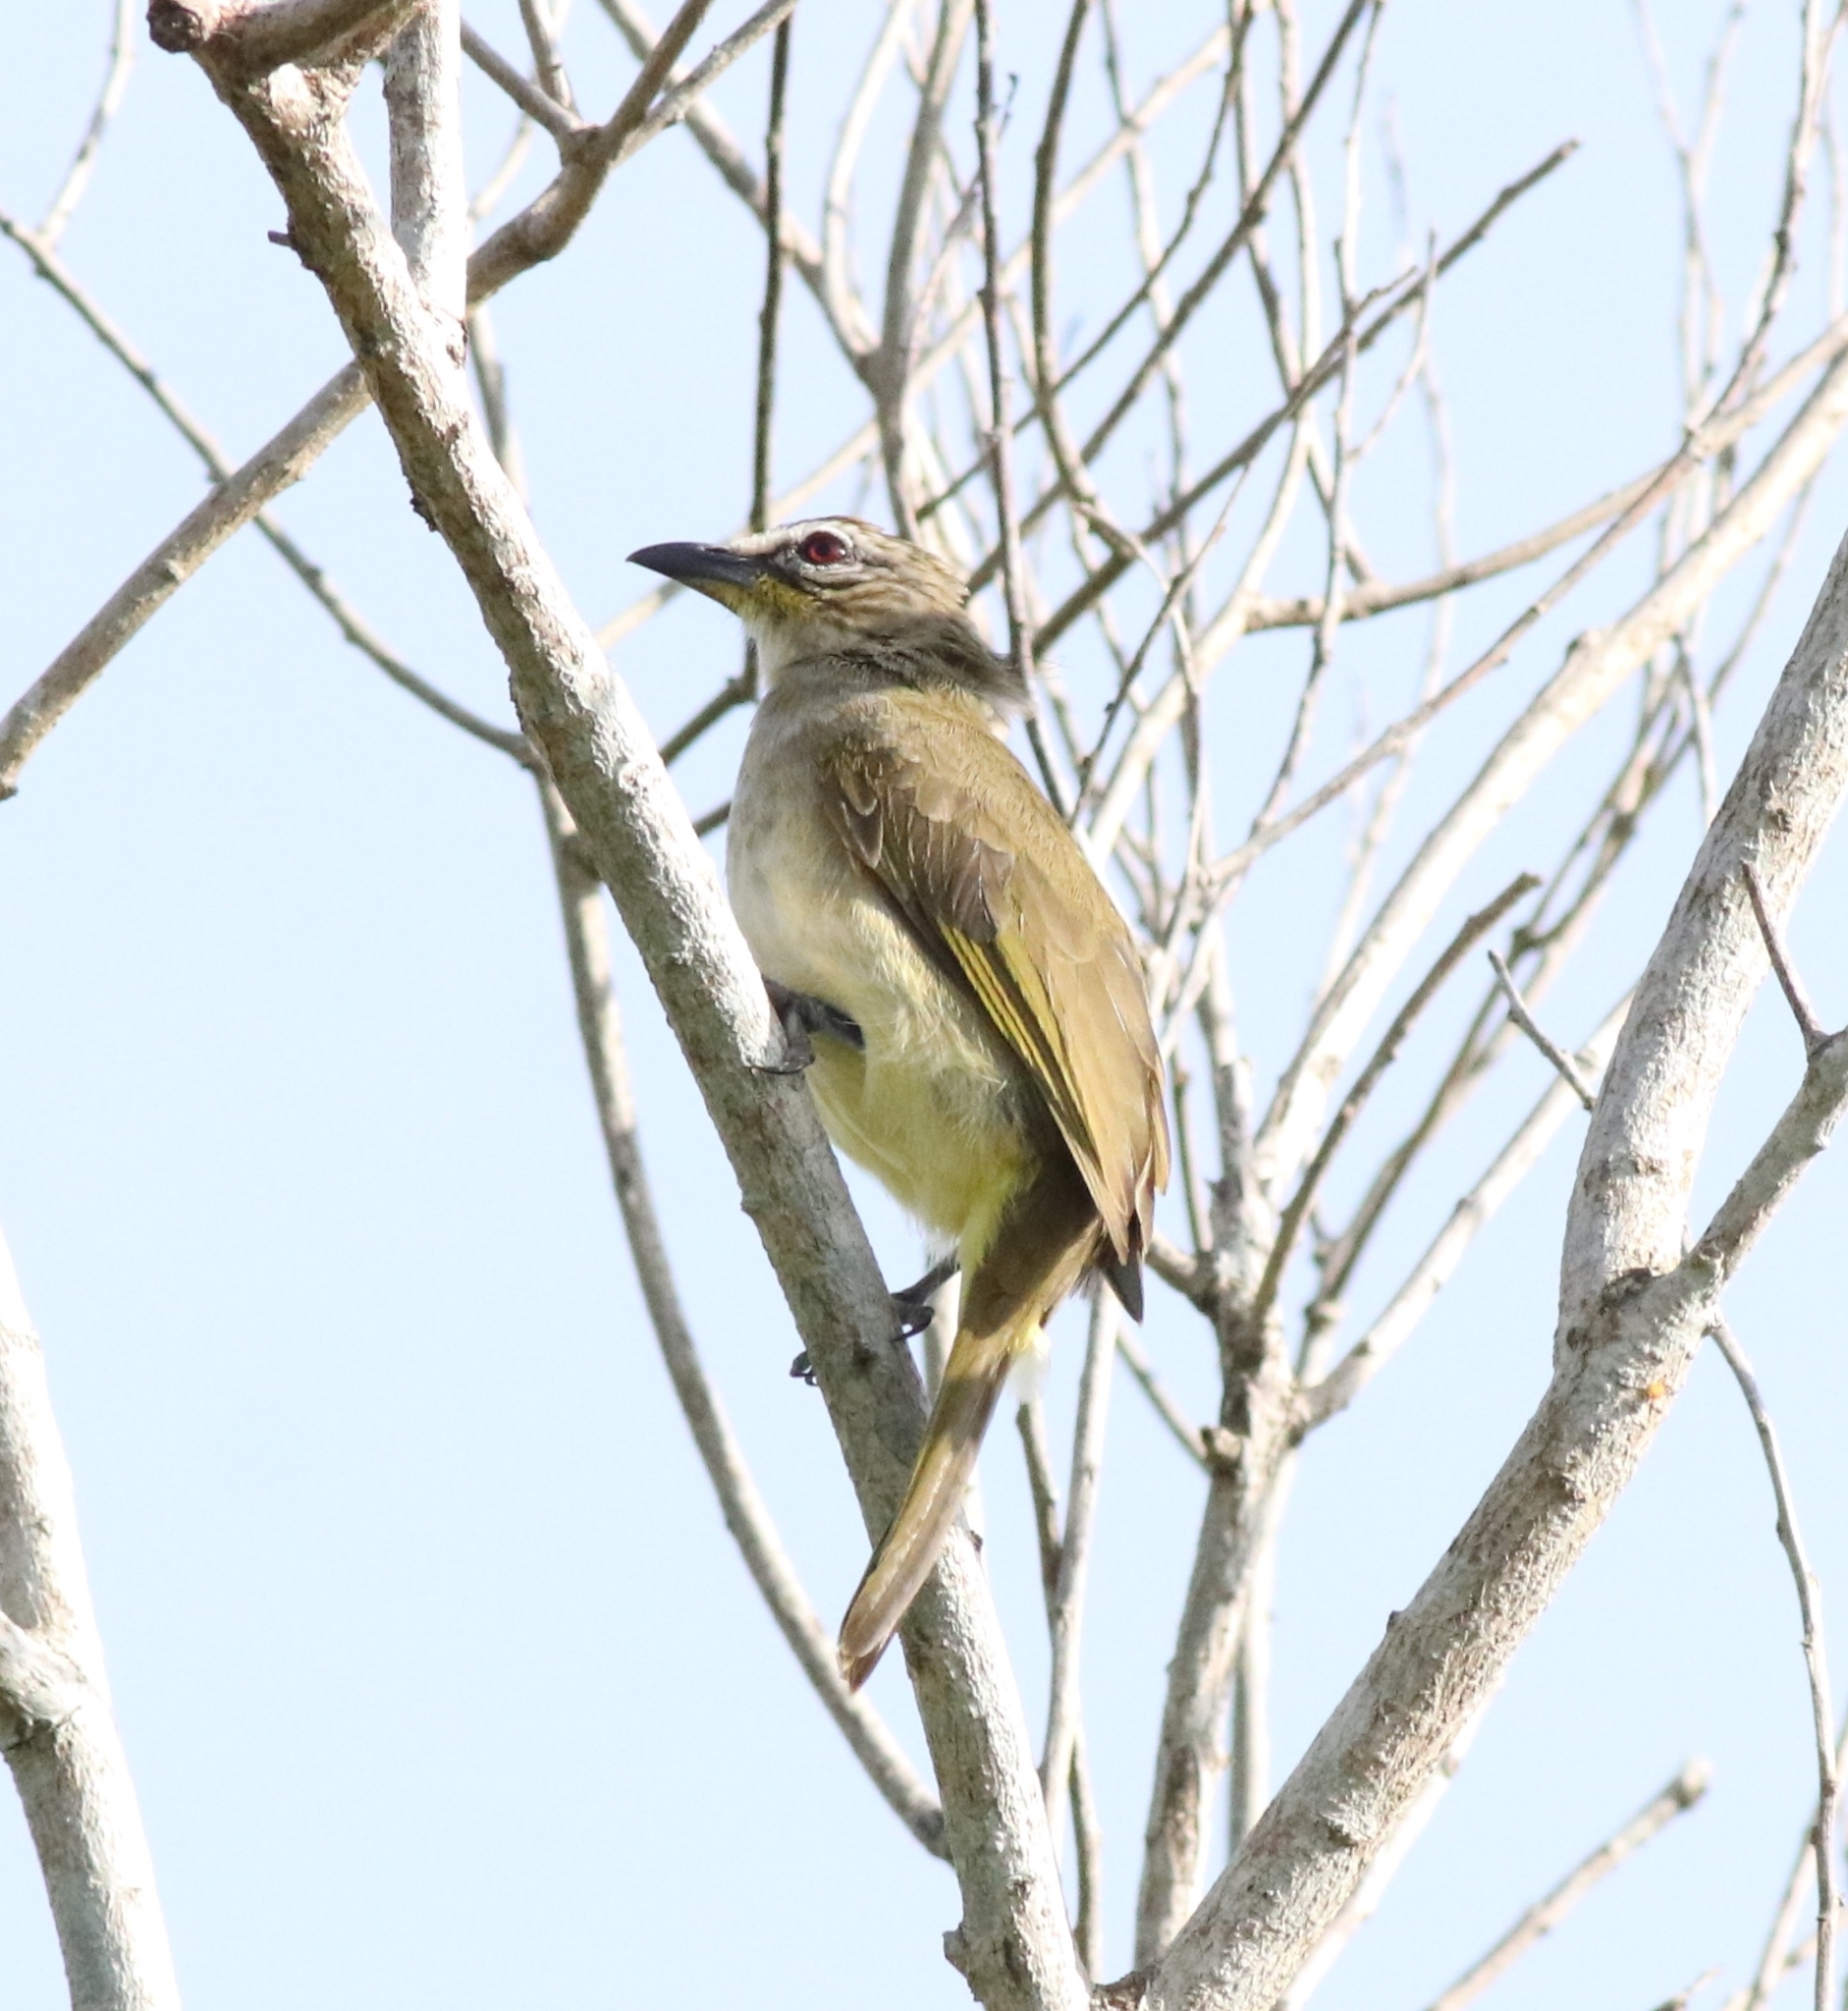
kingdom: Animalia
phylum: Chordata
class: Aves
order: Passeriformes
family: Pycnonotidae
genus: Pycnonotus
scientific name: Pycnonotus luteolus
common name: White-browed bulbul
